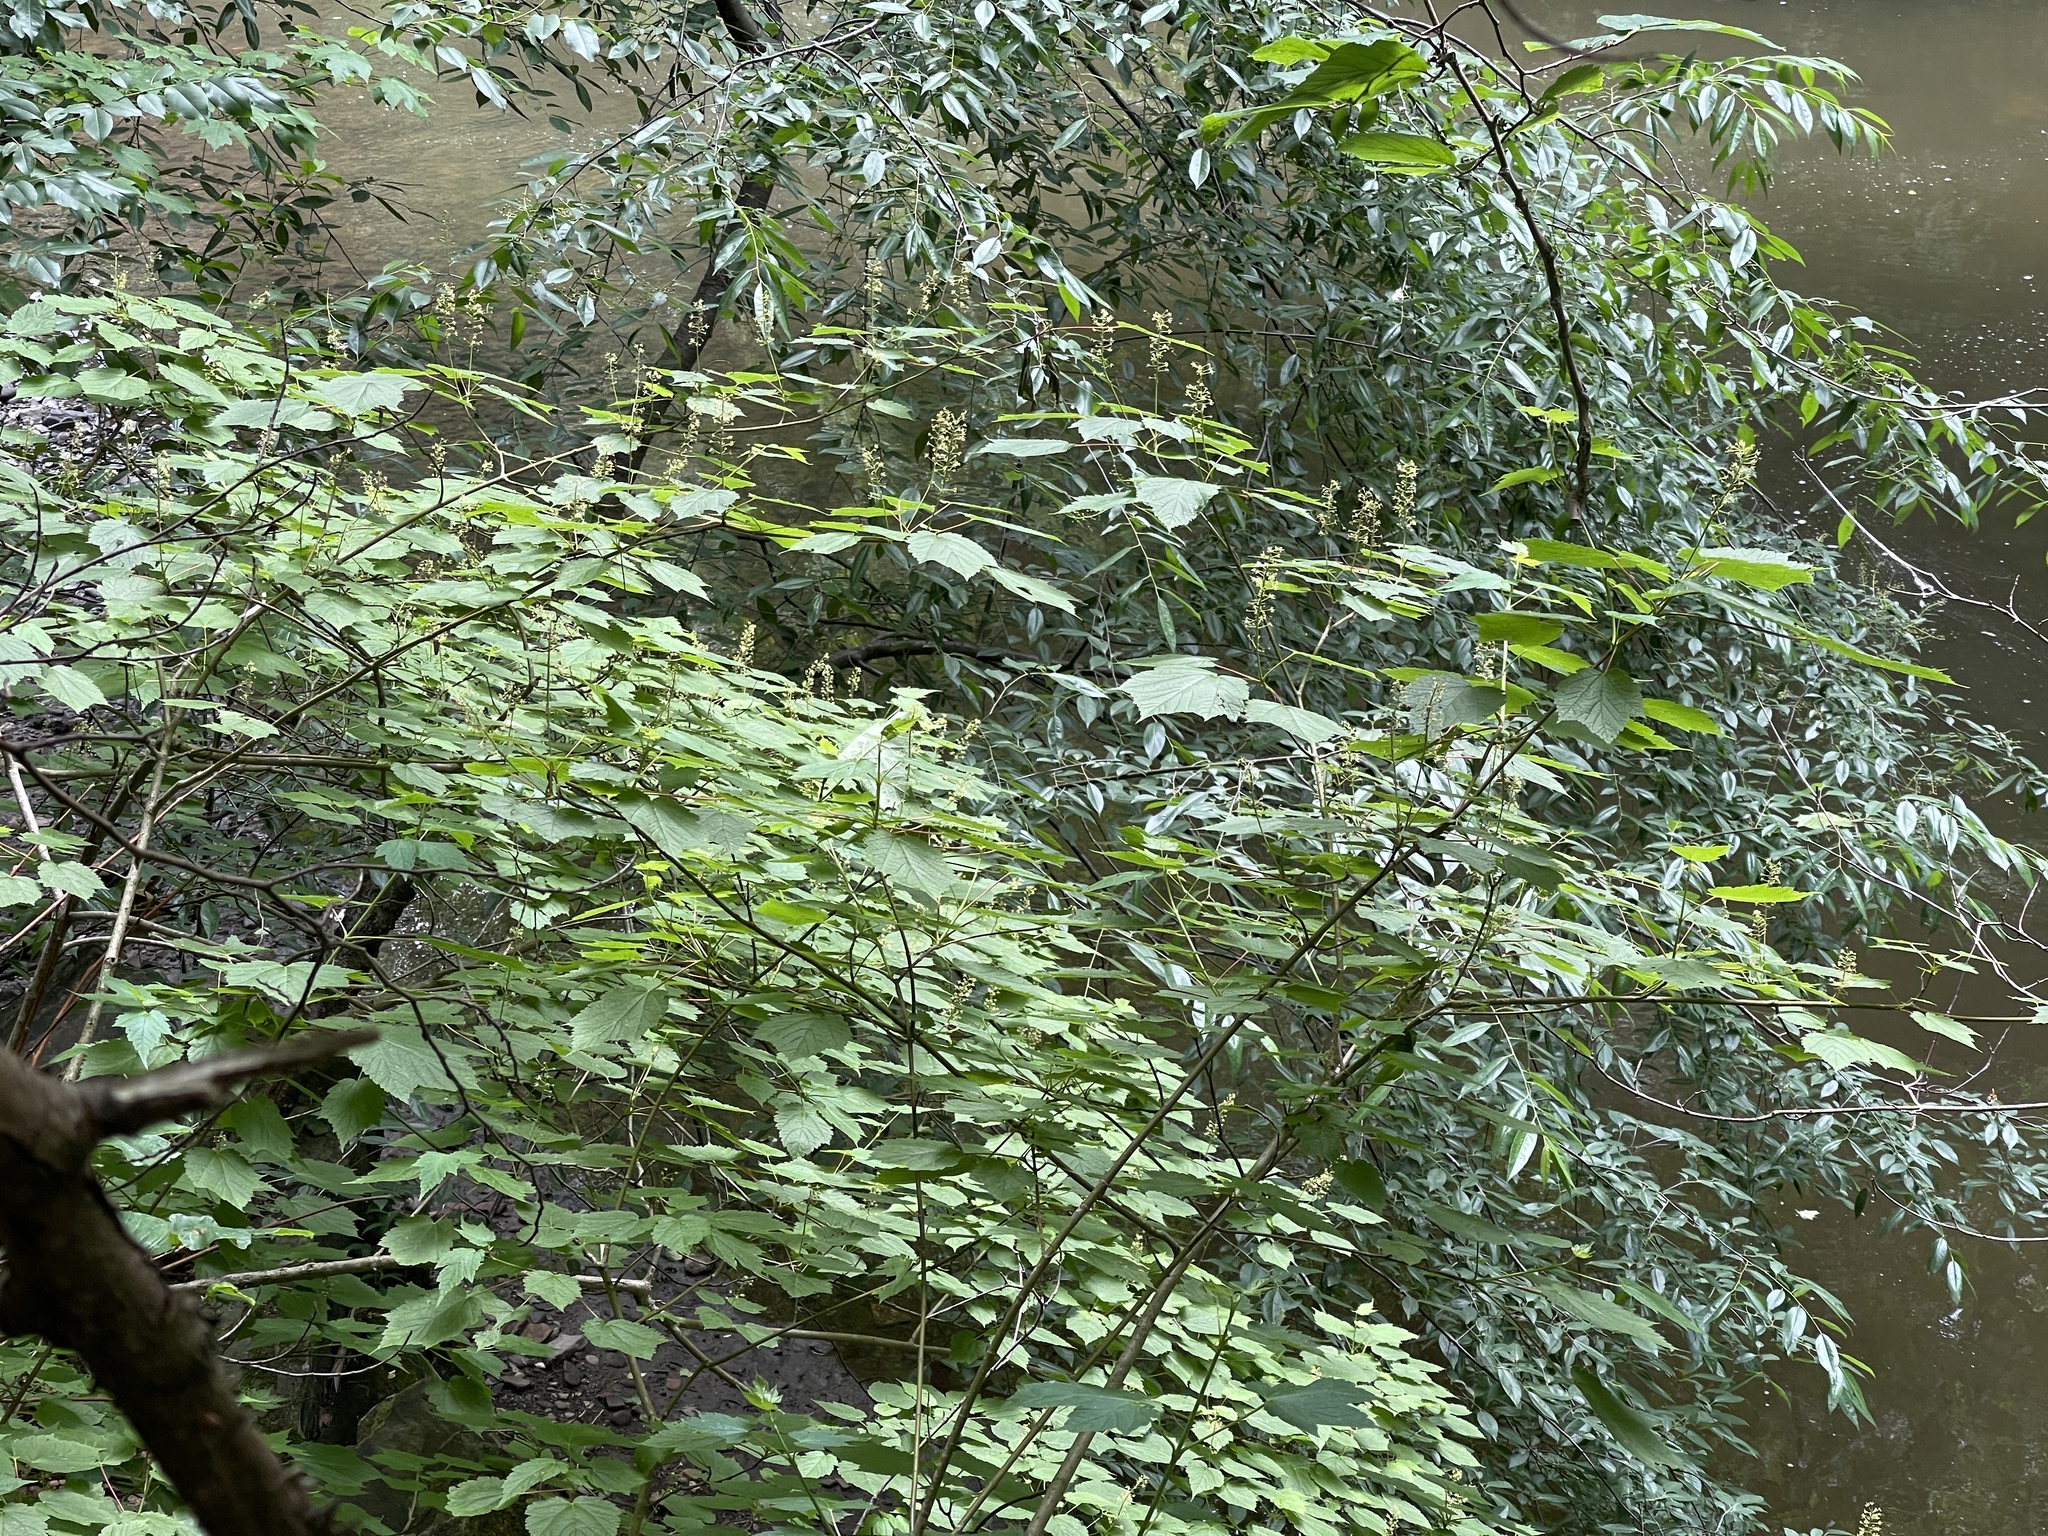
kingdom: Plantae
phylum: Tracheophyta
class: Magnoliopsida
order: Sapindales
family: Sapindaceae
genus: Acer
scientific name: Acer spicatum
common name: Mountain maple
